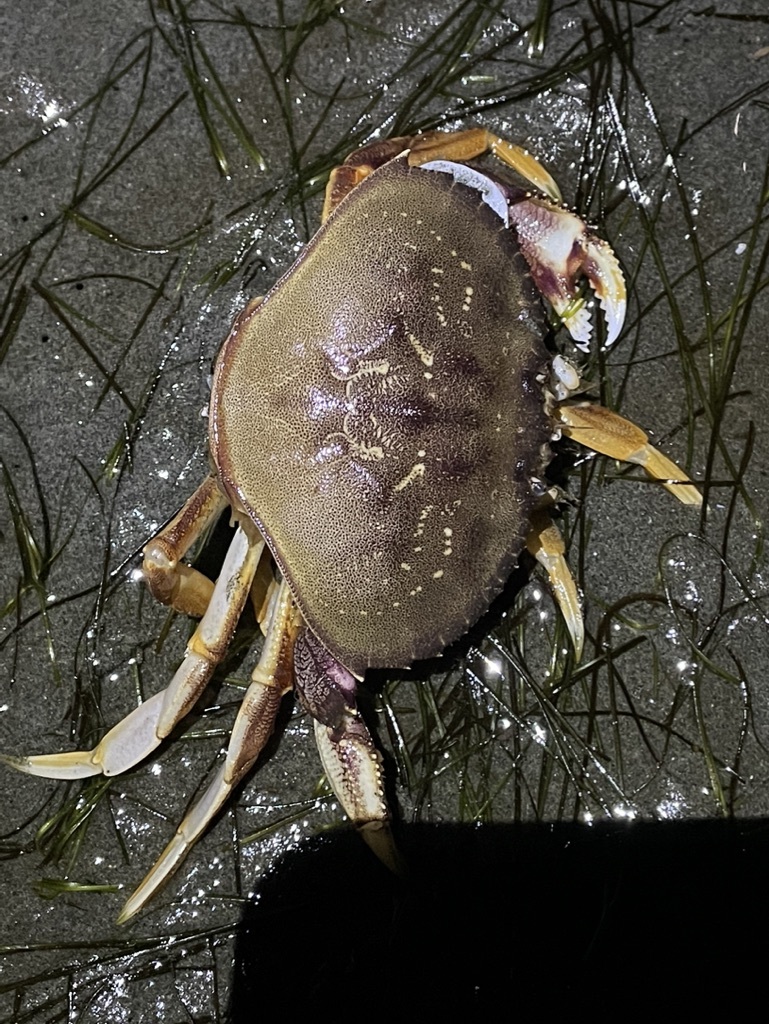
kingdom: Animalia
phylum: Arthropoda
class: Malacostraca
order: Decapoda
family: Cancridae
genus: Metacarcinus
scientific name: Metacarcinus magister
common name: Californian crab
